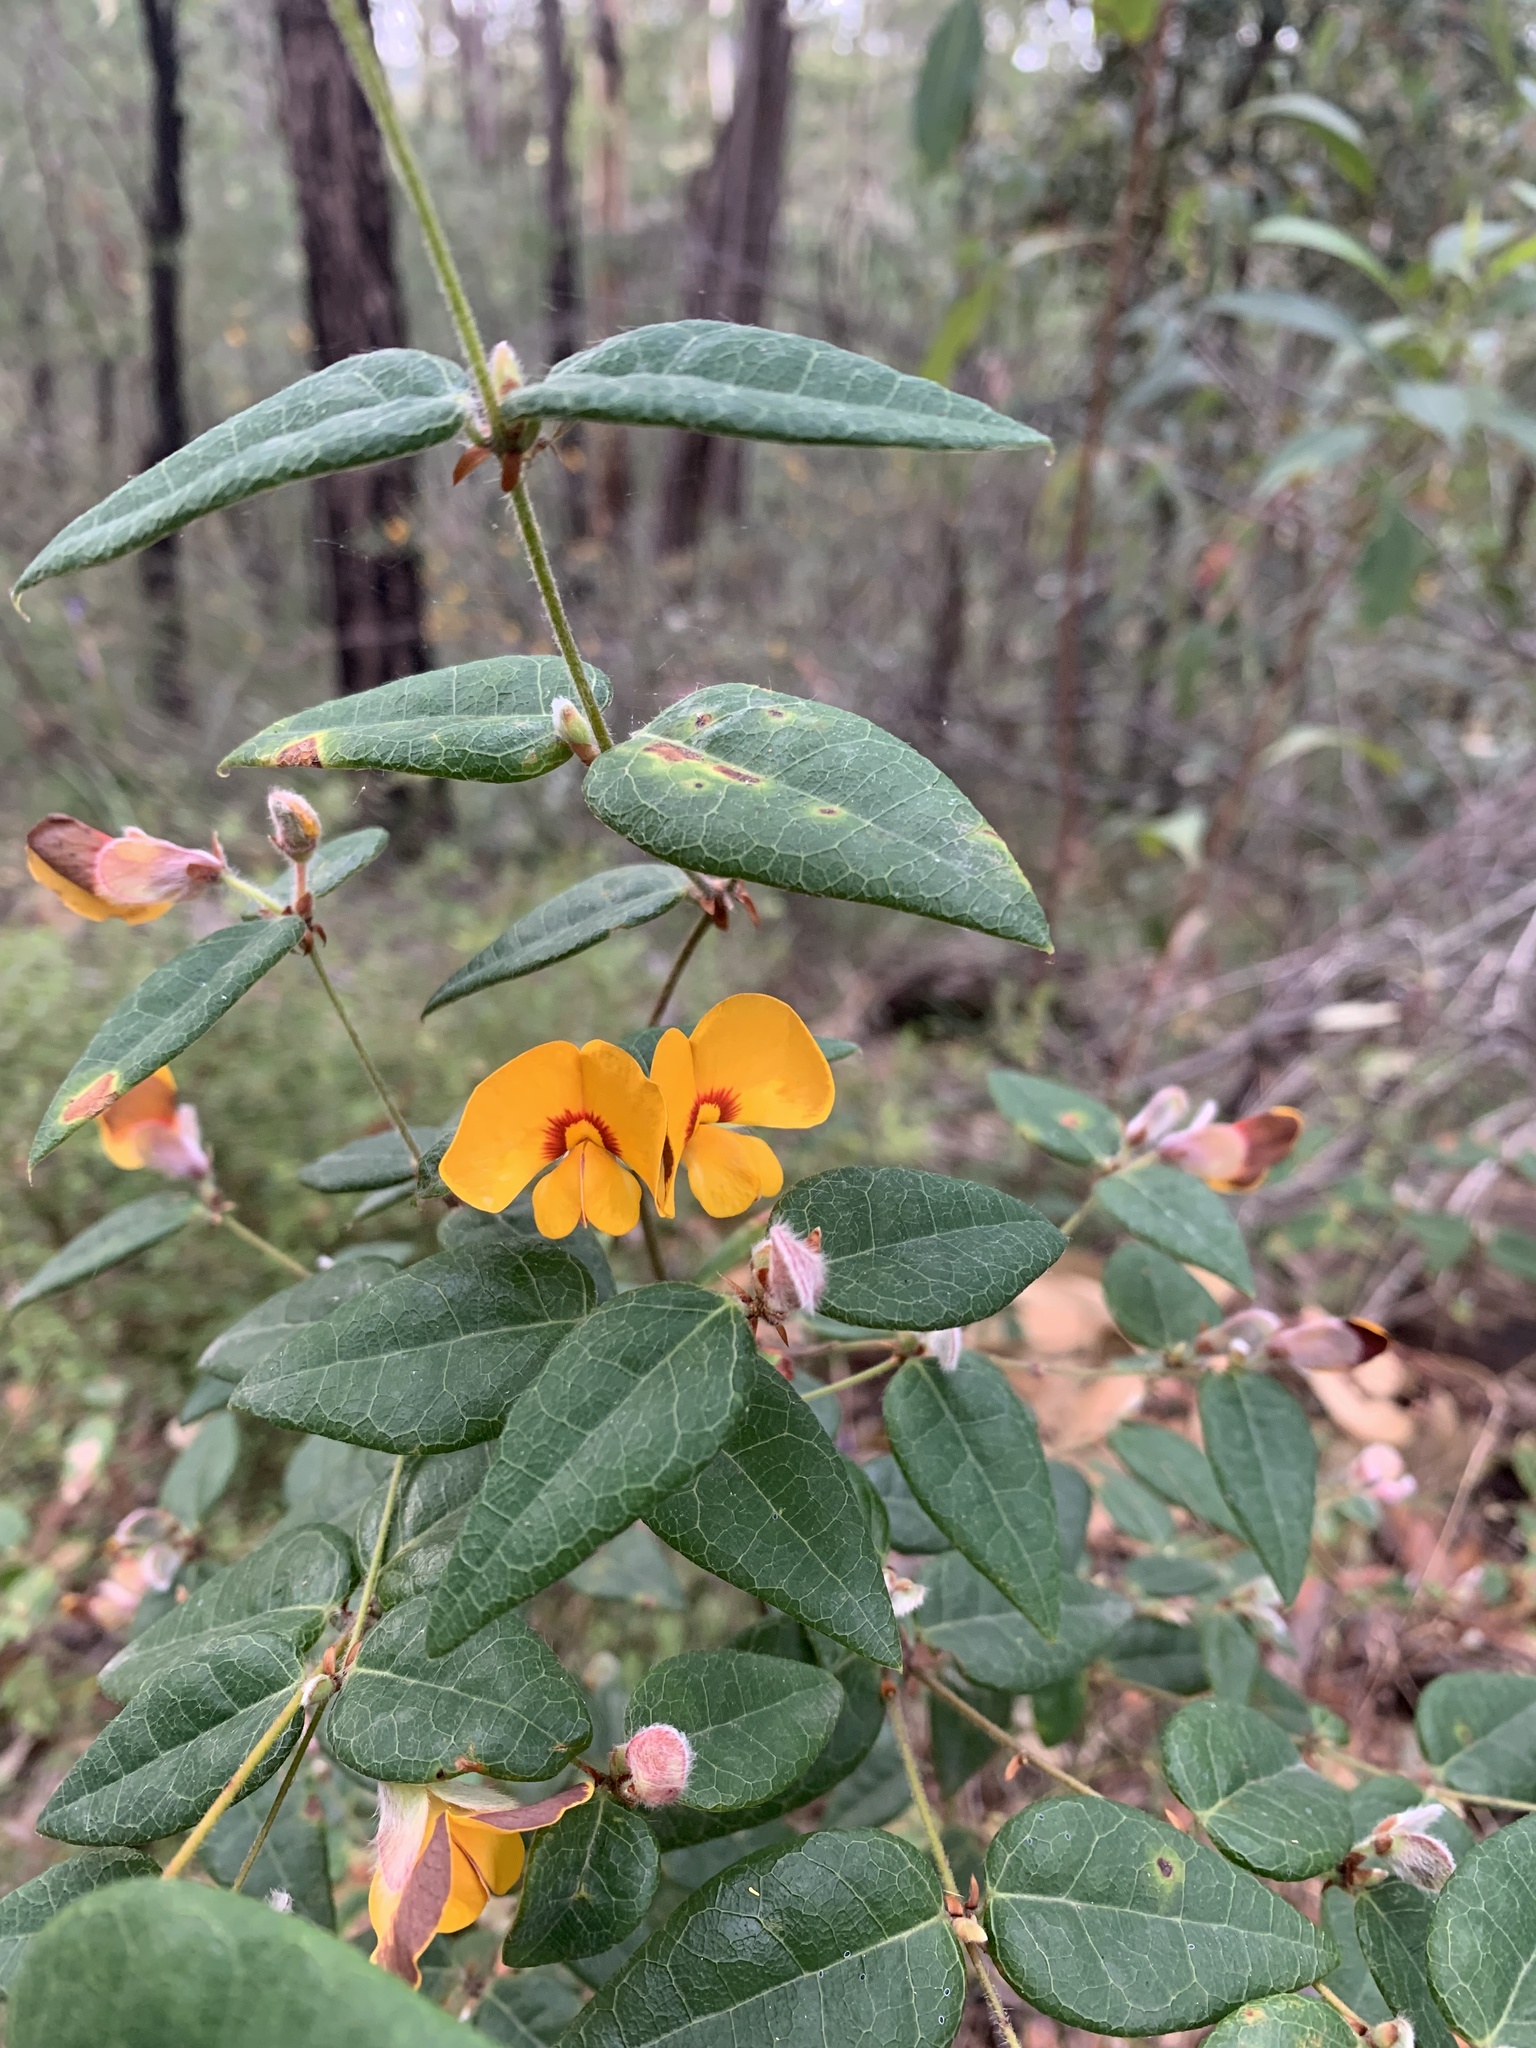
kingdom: Plantae
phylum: Tracheophyta
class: Magnoliopsida
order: Fabales
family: Fabaceae
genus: Platylobium
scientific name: Platylobium formosum
